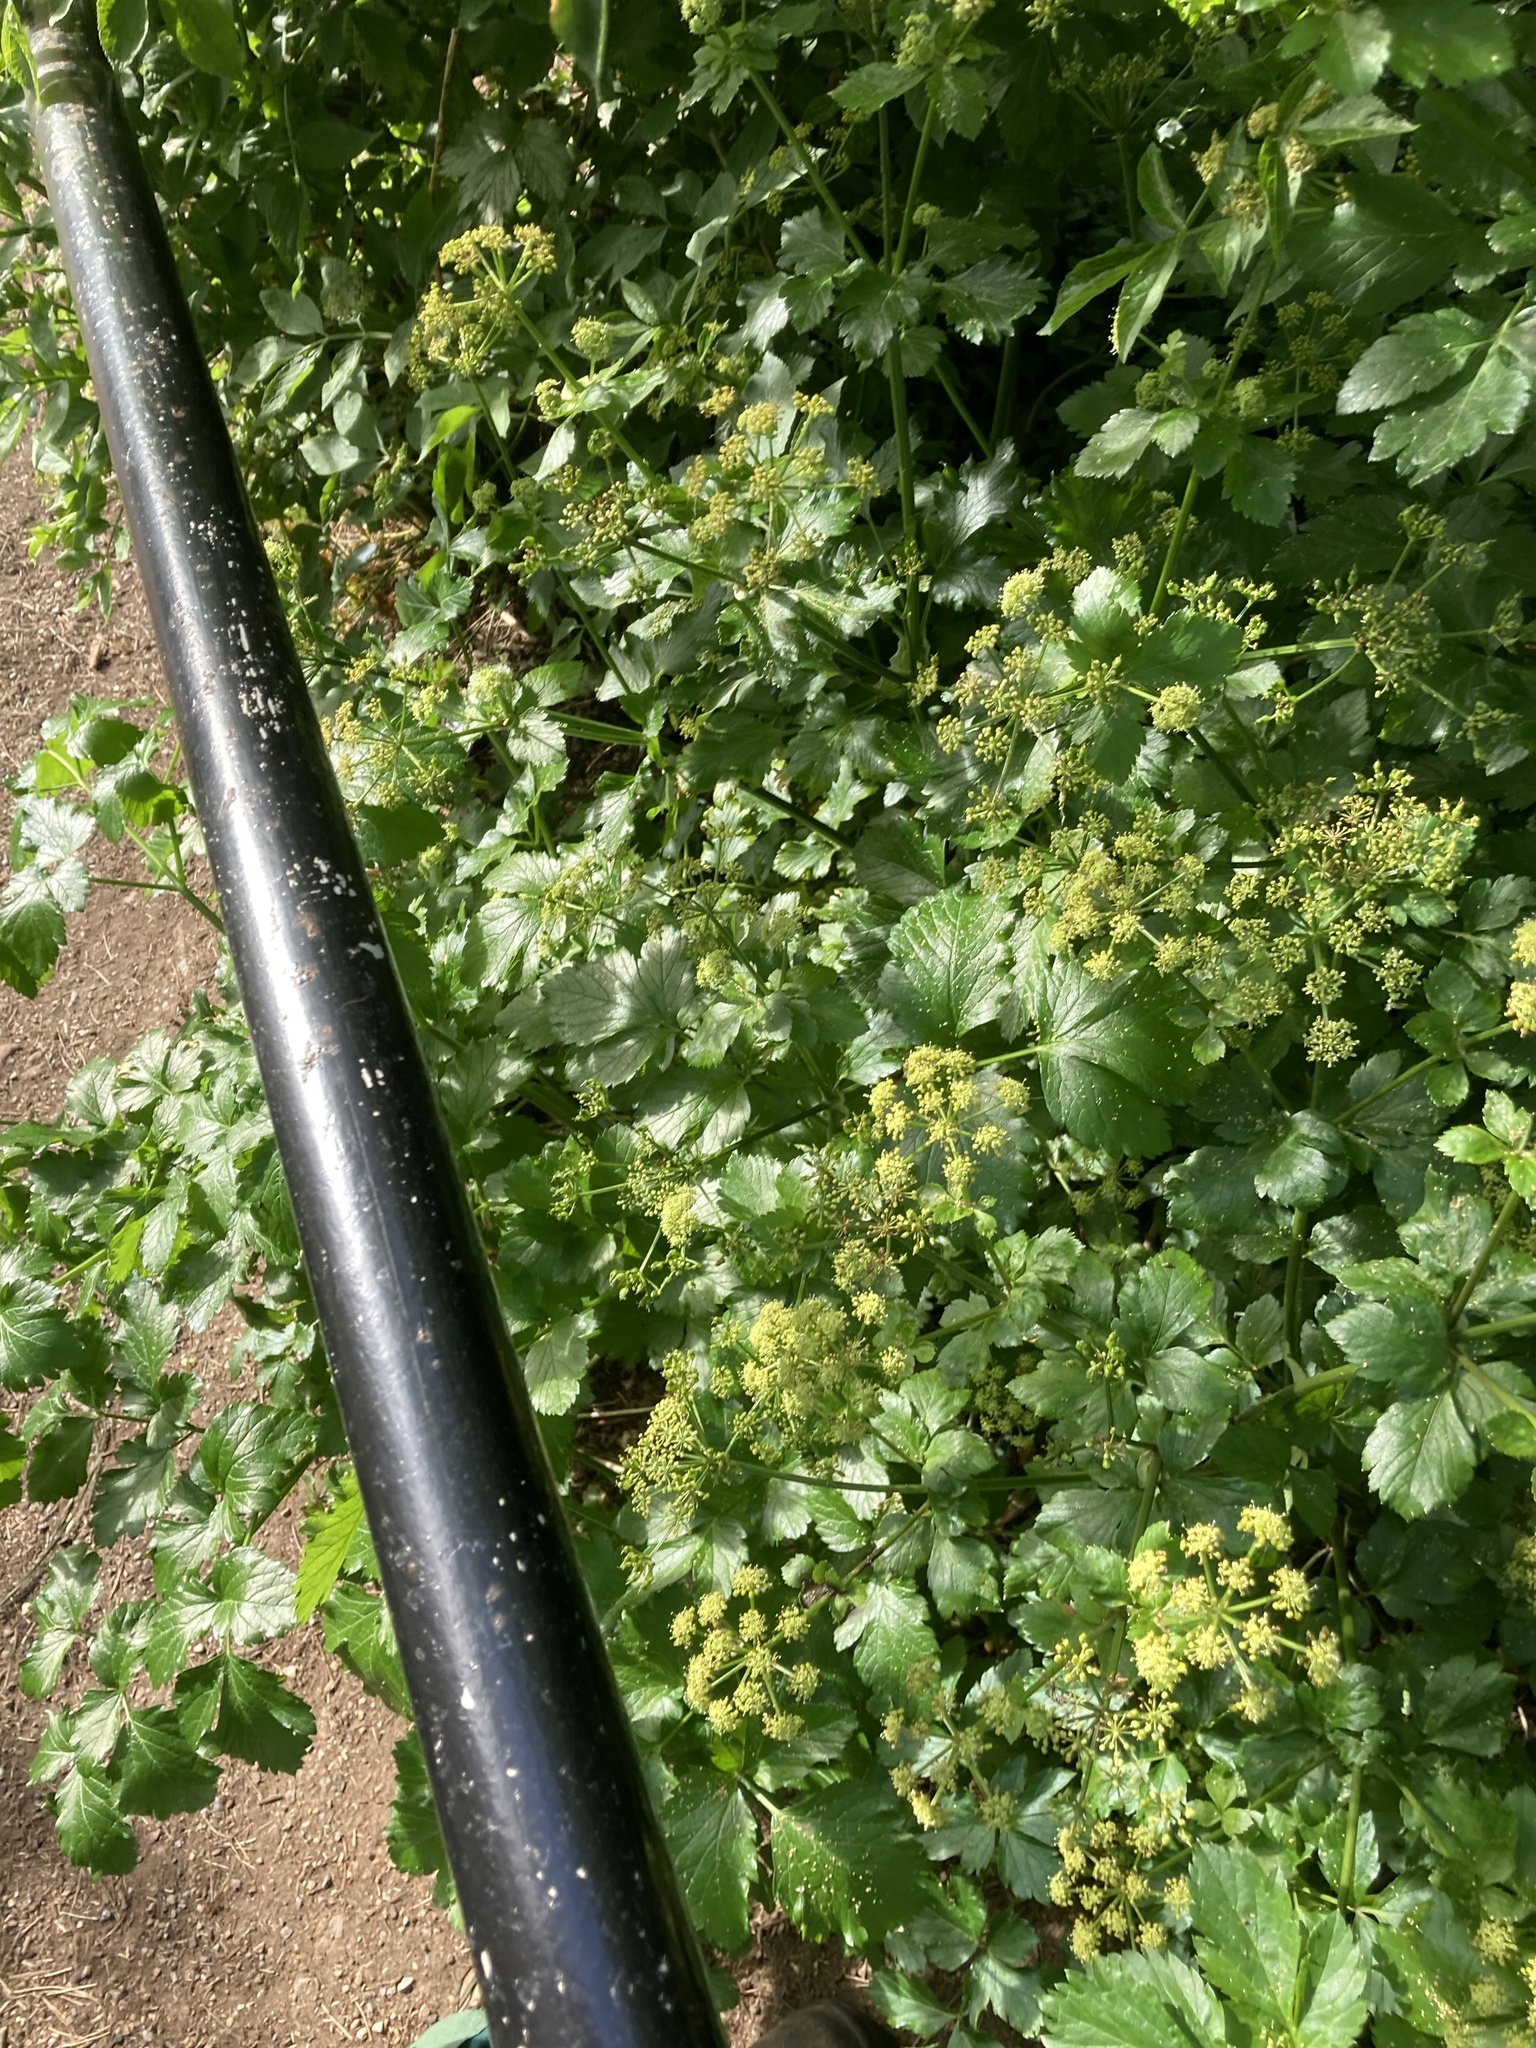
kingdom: Plantae
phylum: Tracheophyta
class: Magnoliopsida
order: Apiales
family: Apiaceae
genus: Smyrnium
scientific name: Smyrnium olusatrum
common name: Alexanders
